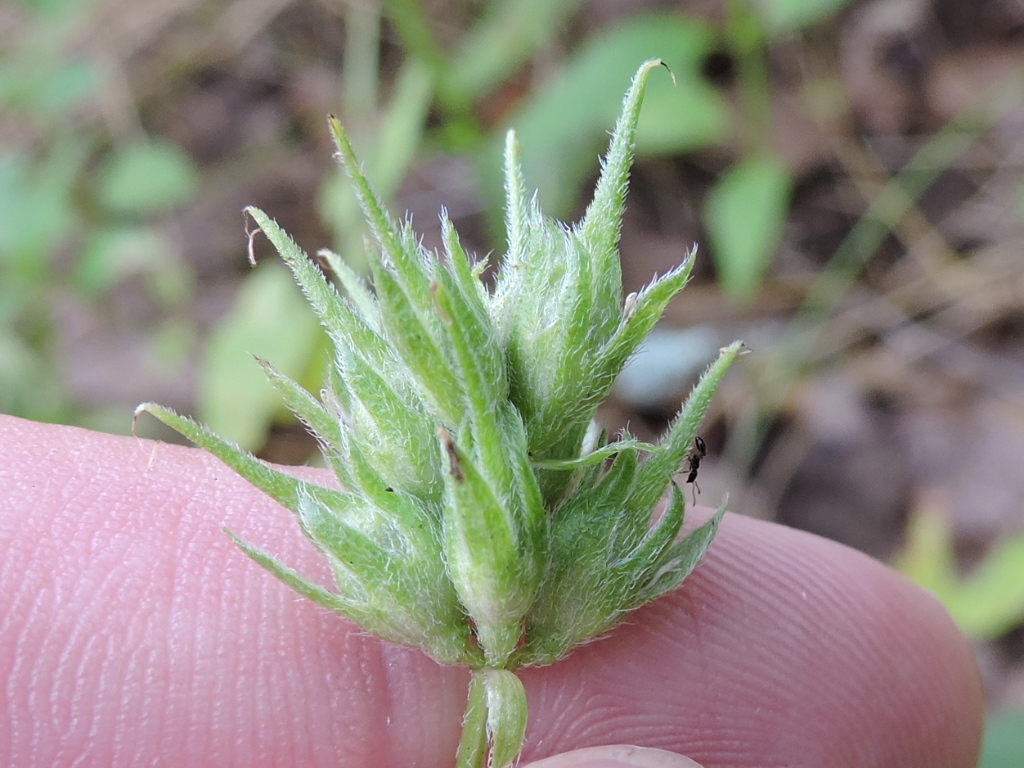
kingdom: Plantae
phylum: Tracheophyta
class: Magnoliopsida
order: Fabales
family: Fabaceae
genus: Pediomelum
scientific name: Pediomelum rhombifolium
